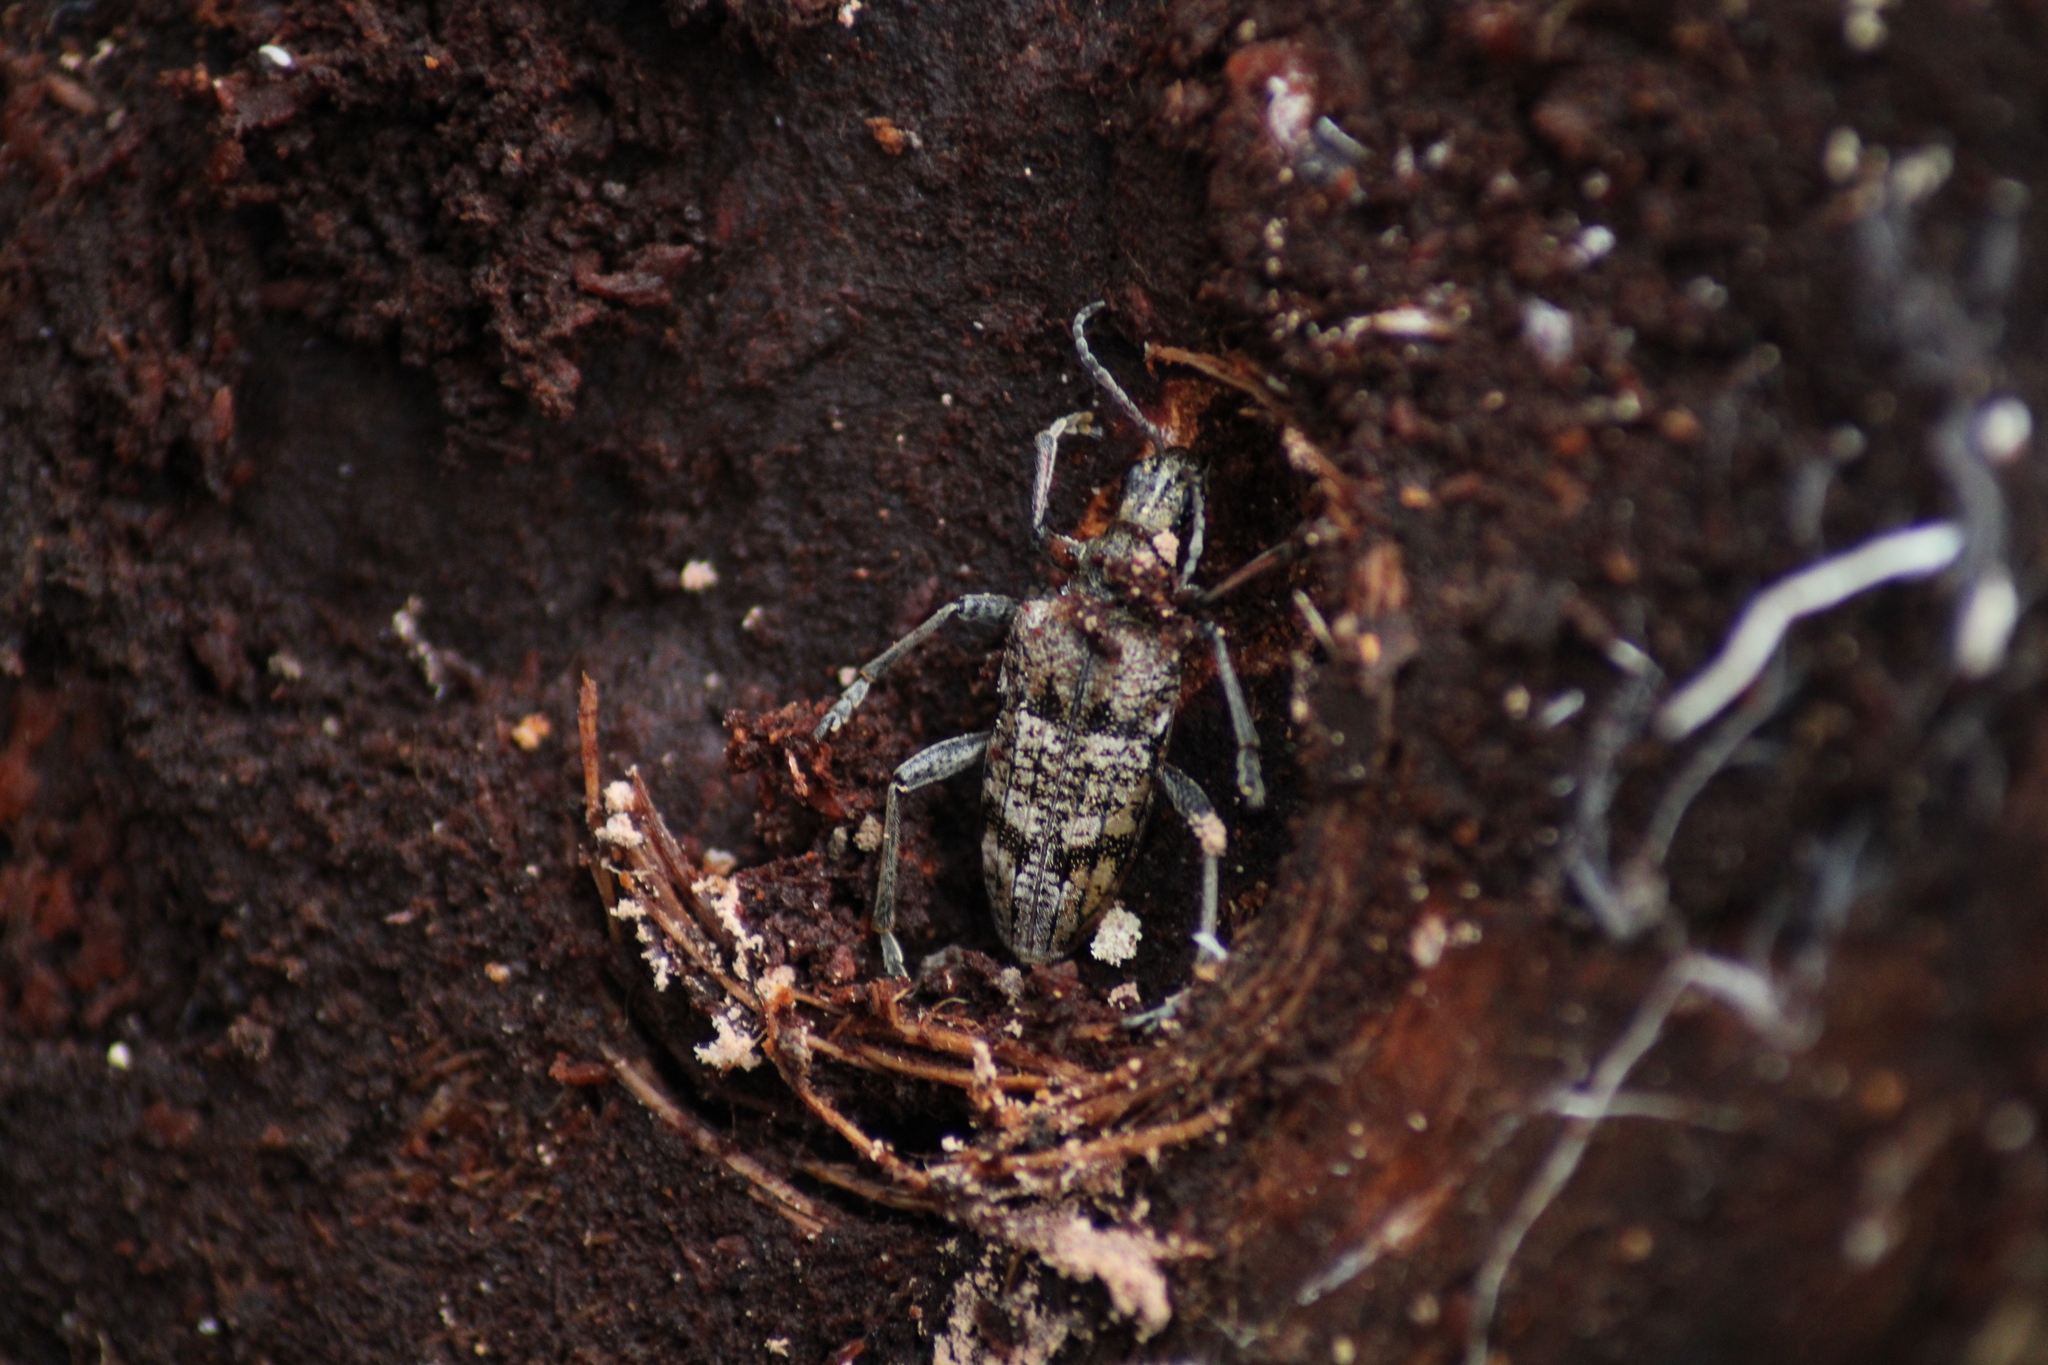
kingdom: Animalia
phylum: Arthropoda
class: Insecta
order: Coleoptera
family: Cerambycidae
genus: Rhagium
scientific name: Rhagium inquisitor
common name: Ribbed pine borer
